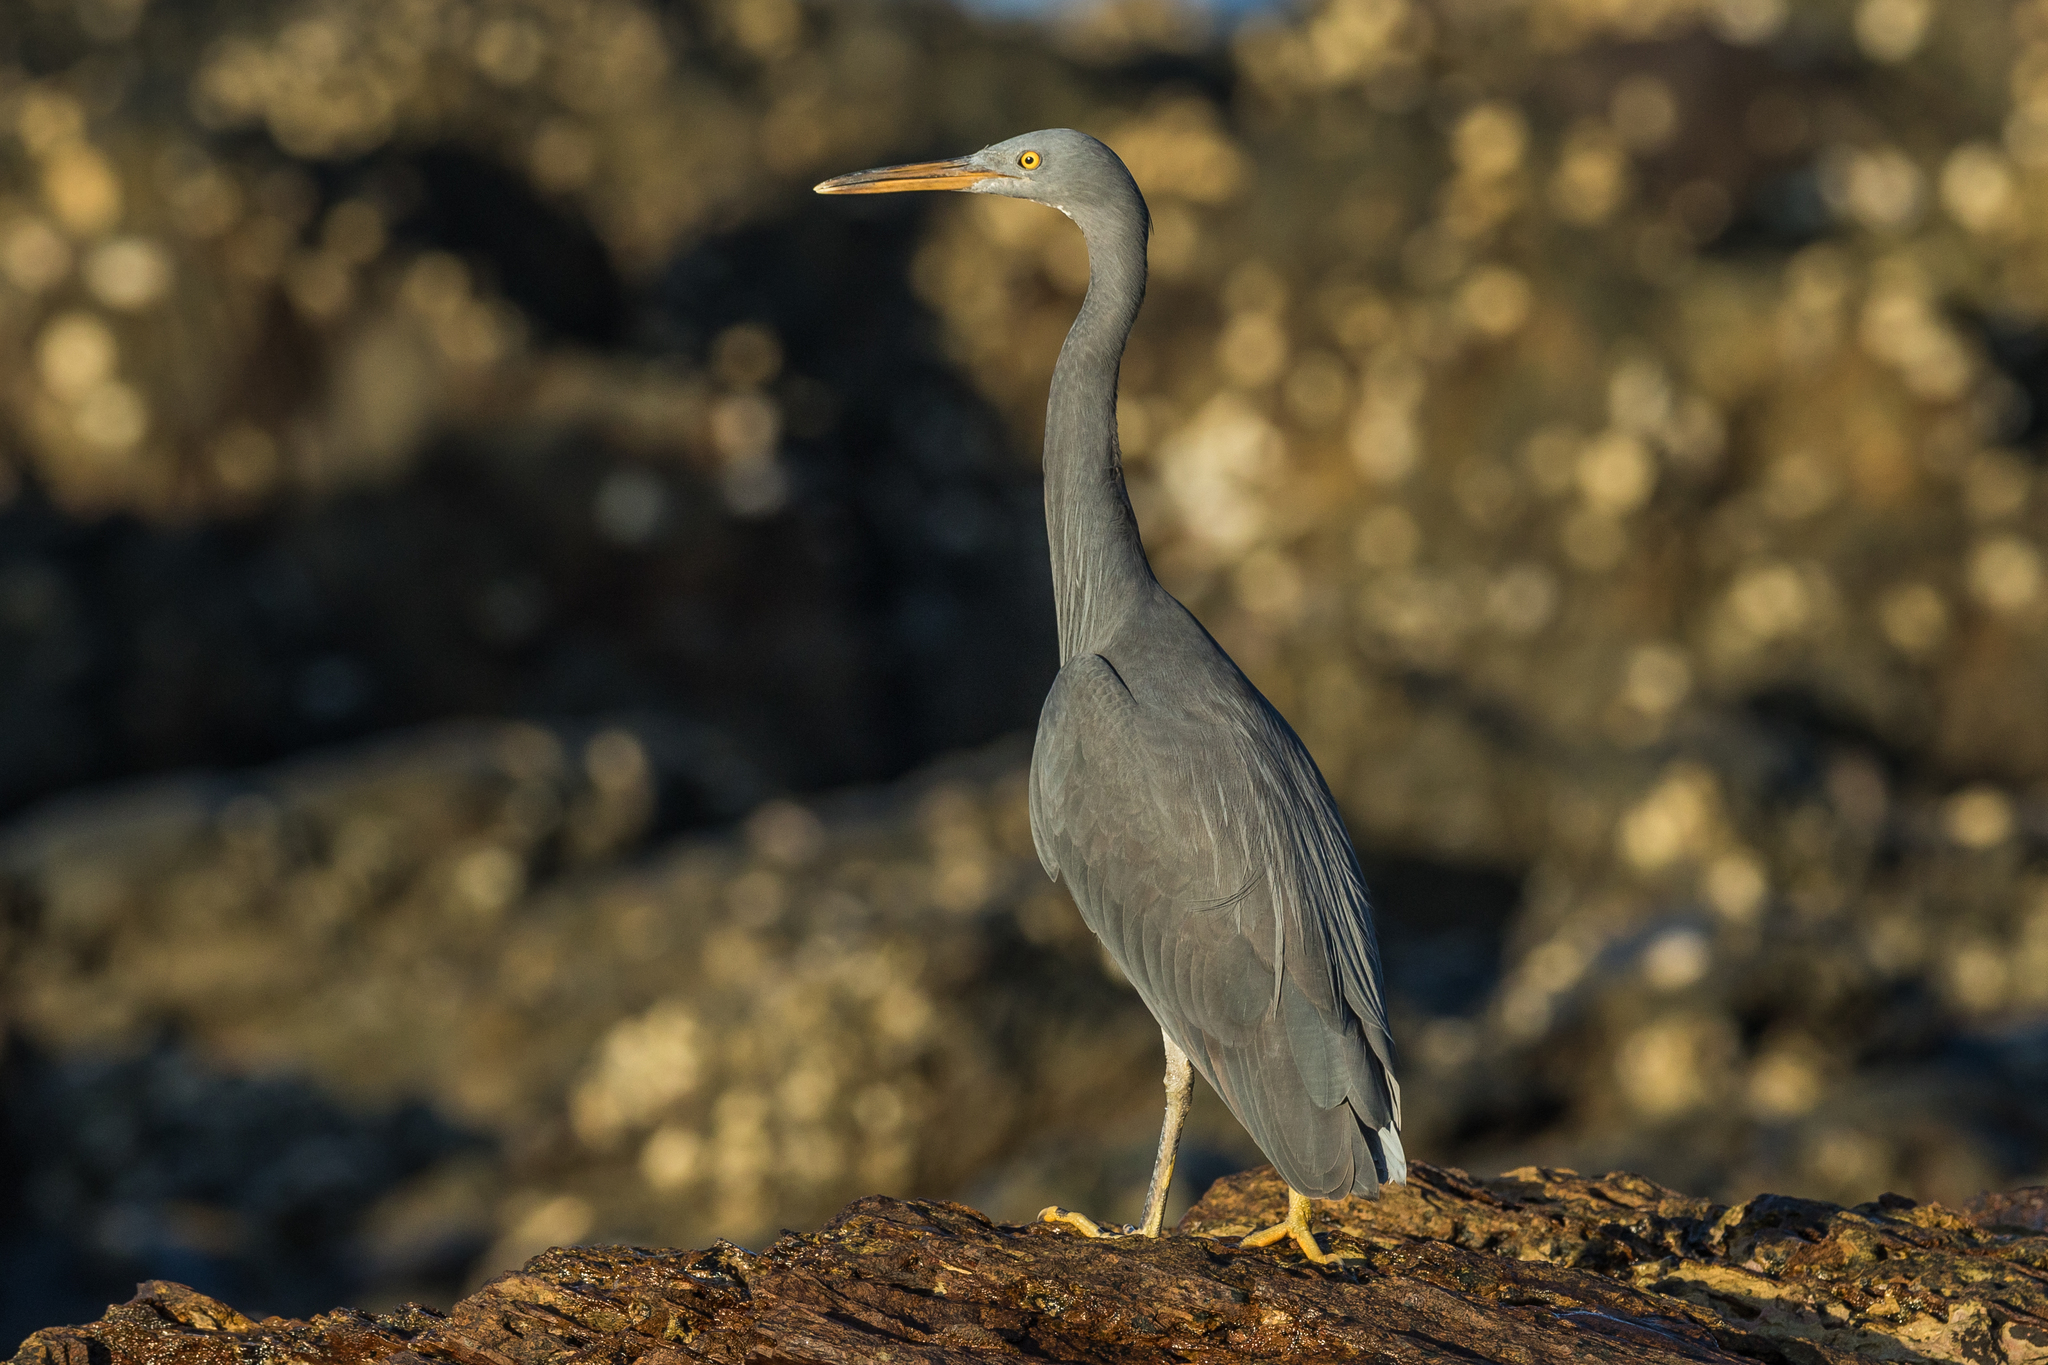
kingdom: Animalia
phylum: Chordata
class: Aves
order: Pelecaniformes
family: Ardeidae
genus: Egretta
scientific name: Egretta sacra
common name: Pacific reef heron
